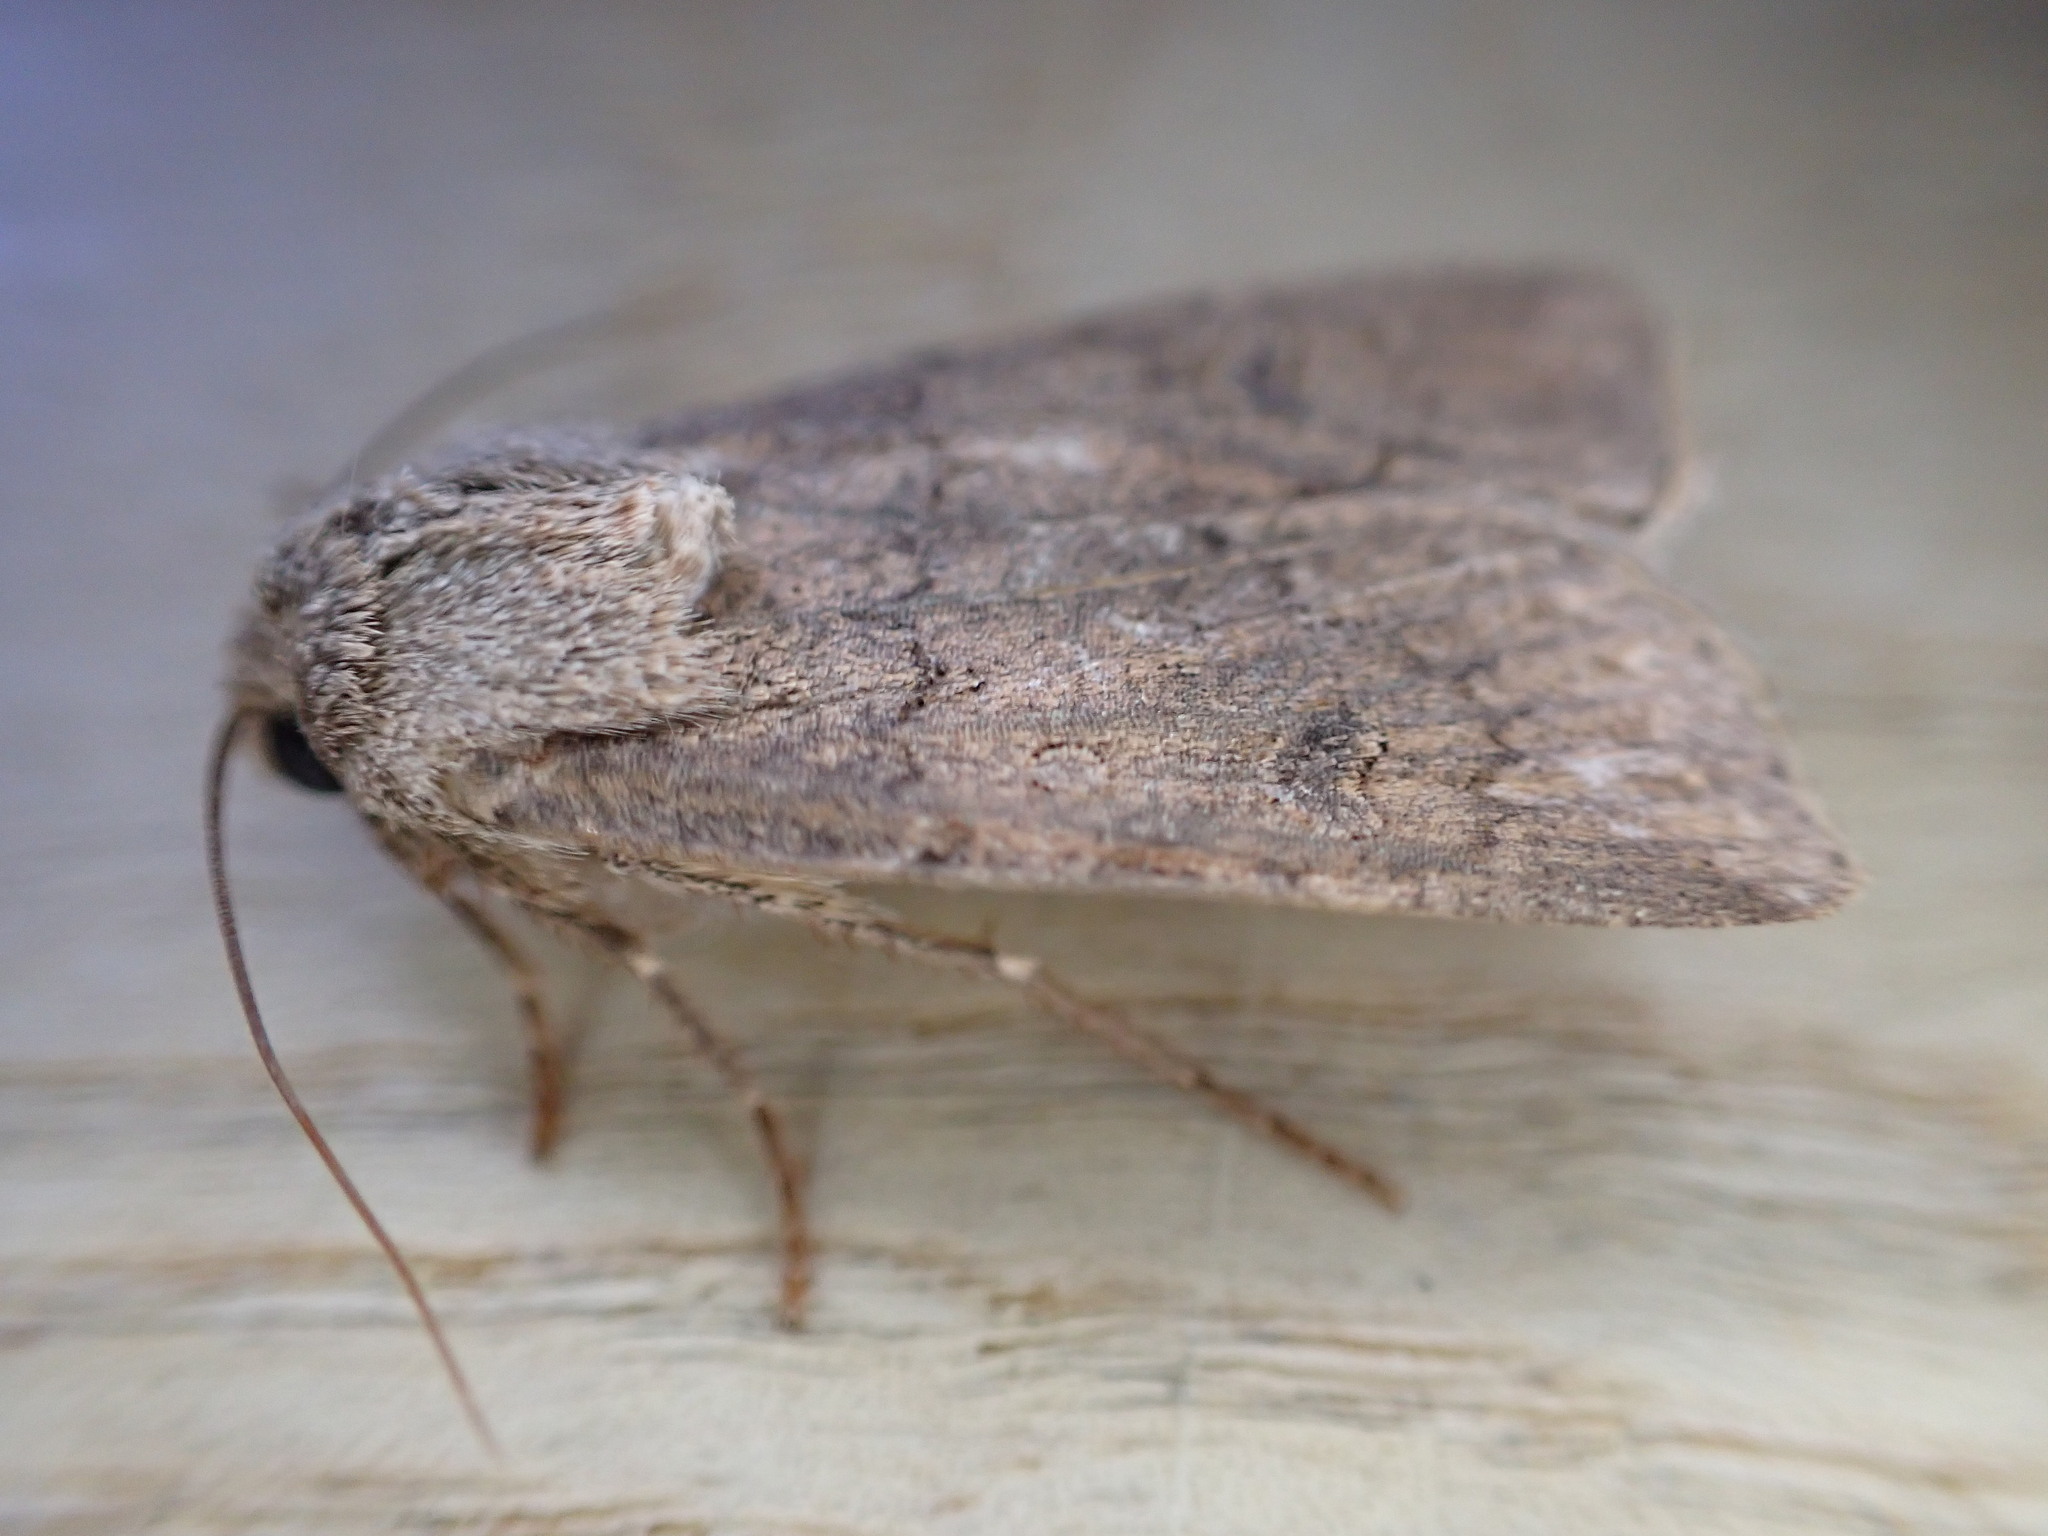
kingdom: Animalia
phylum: Arthropoda
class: Insecta
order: Lepidoptera
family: Noctuidae
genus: Agrotis
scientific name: Agrotis segetum
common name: Turnip moth
